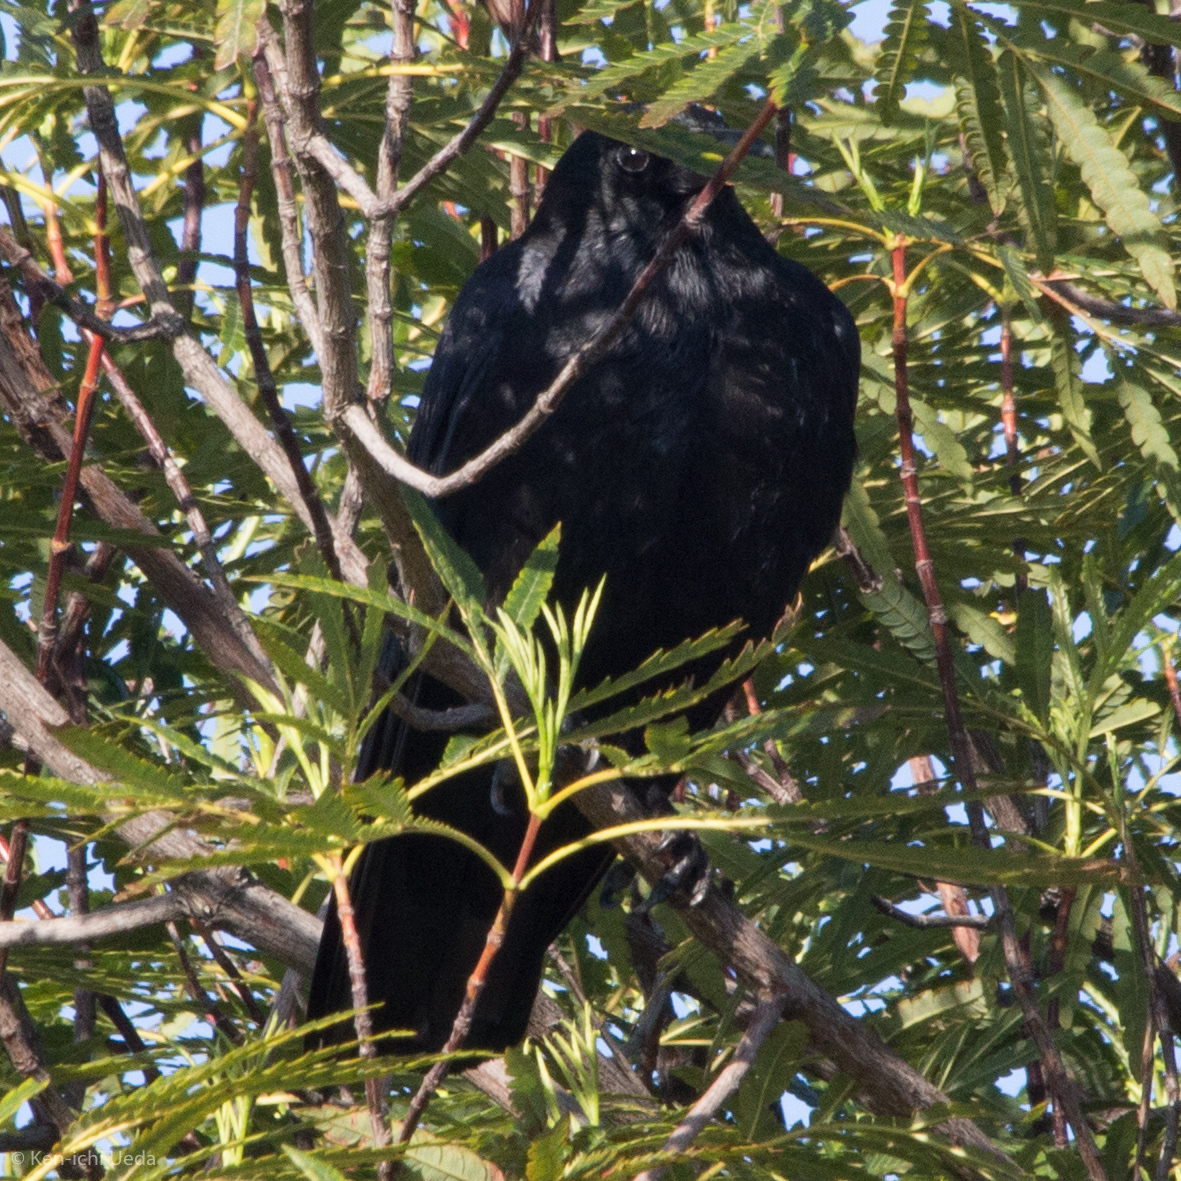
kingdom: Animalia
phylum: Chordata
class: Aves
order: Passeriformes
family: Corvidae
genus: Corvus
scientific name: Corvus brachyrhynchos
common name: American crow
